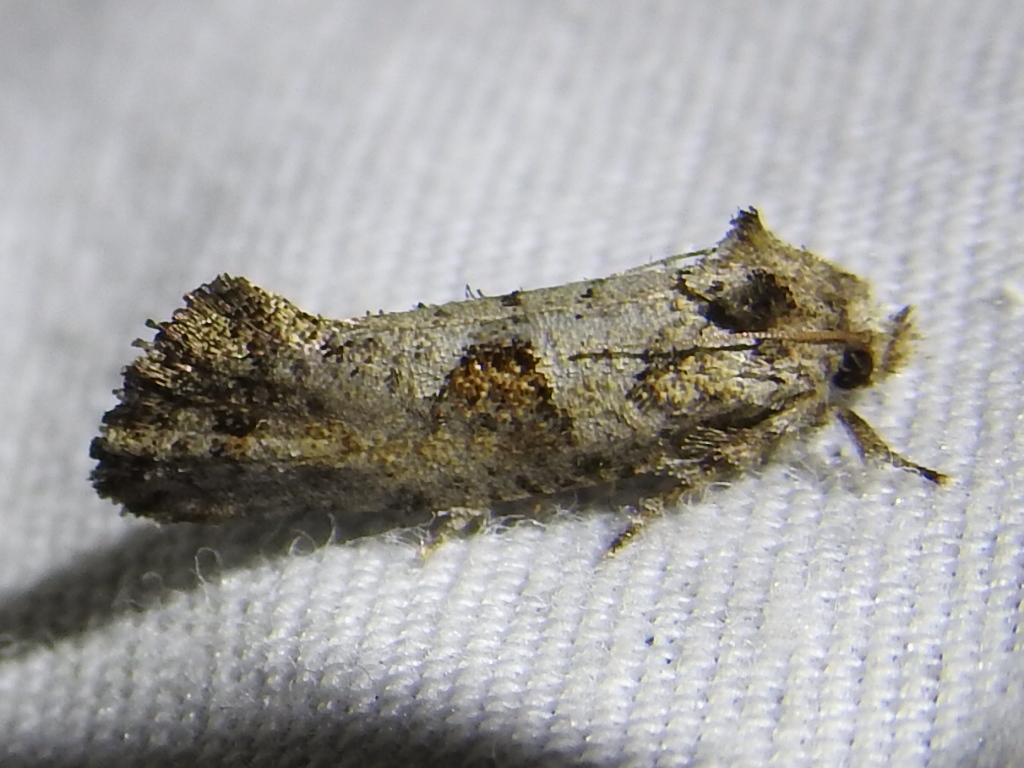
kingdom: Animalia
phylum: Arthropoda
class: Insecta
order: Lepidoptera
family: Tineidae
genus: Acrolophus
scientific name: Acrolophus piger
